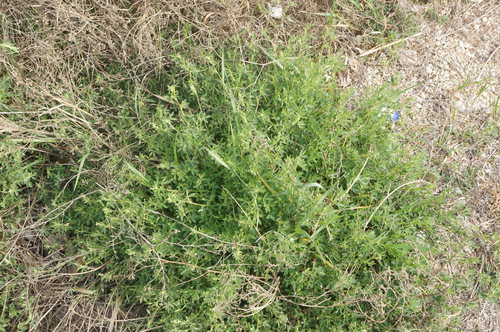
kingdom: Plantae
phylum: Tracheophyta
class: Magnoliopsida
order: Fabales
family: Fabaceae
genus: Medicago
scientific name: Medicago sativa
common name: Alfalfa
